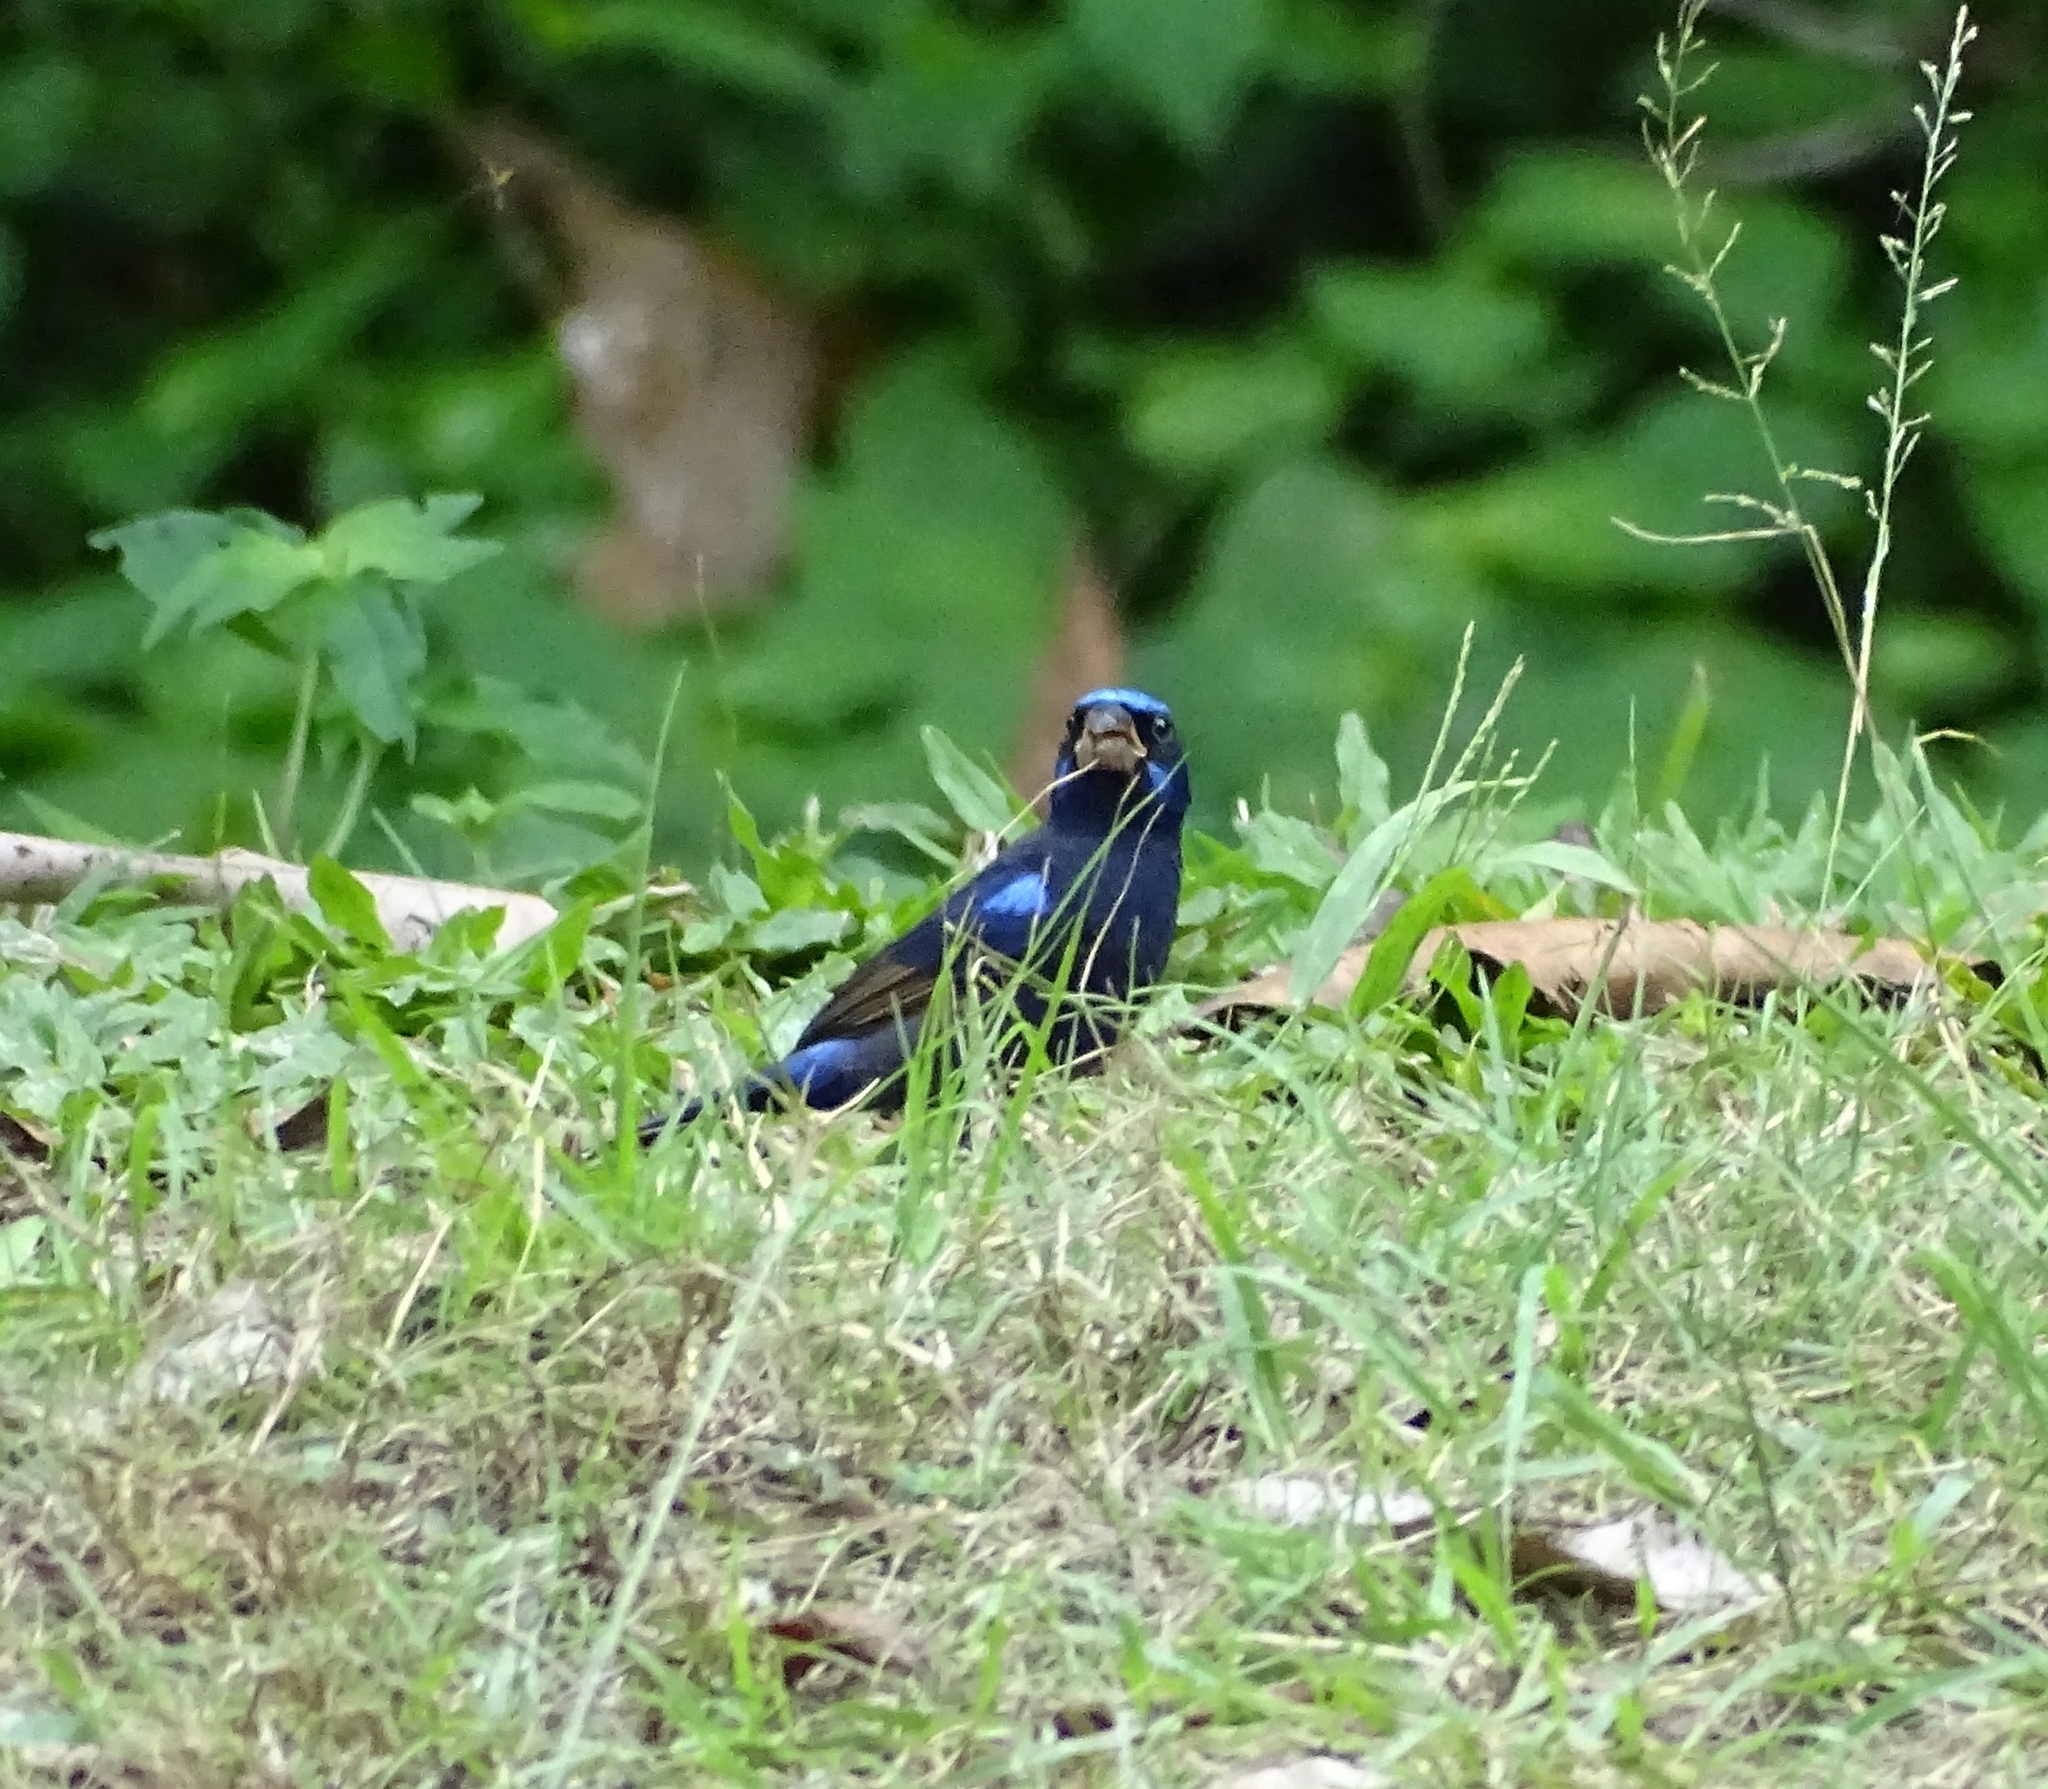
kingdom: Animalia
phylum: Chordata
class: Aves
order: Passeriformes
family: Cardinalidae
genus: Cyanocompsa
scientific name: Cyanocompsa parellina
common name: Blue bunting
